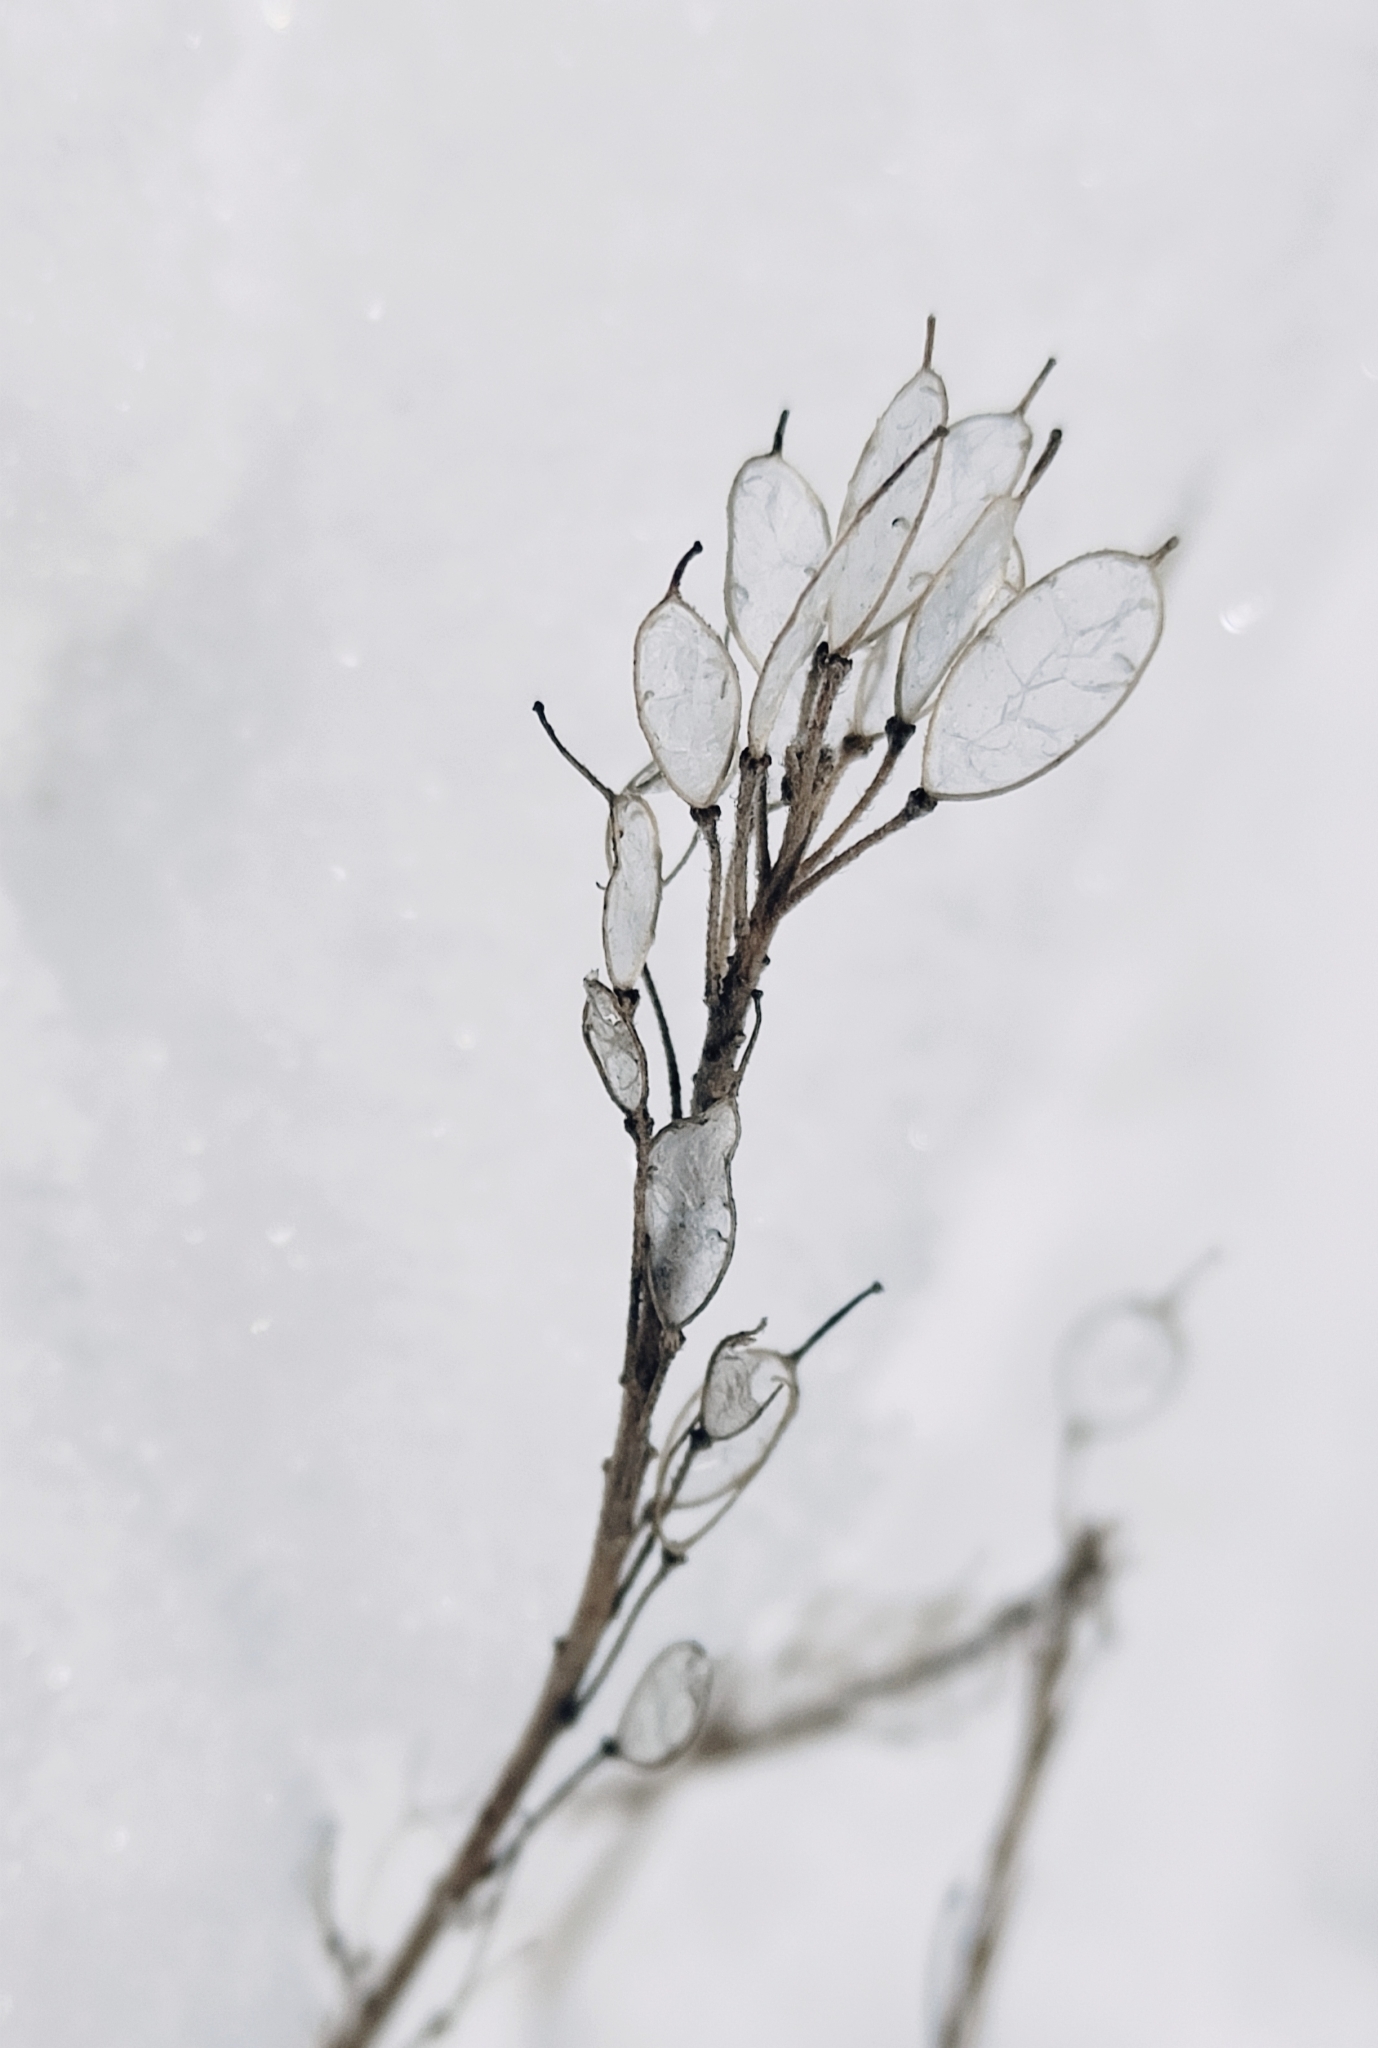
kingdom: Plantae
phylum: Tracheophyta
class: Magnoliopsida
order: Brassicales
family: Brassicaceae
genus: Berteroa
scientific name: Berteroa incana
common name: Hoary alison
